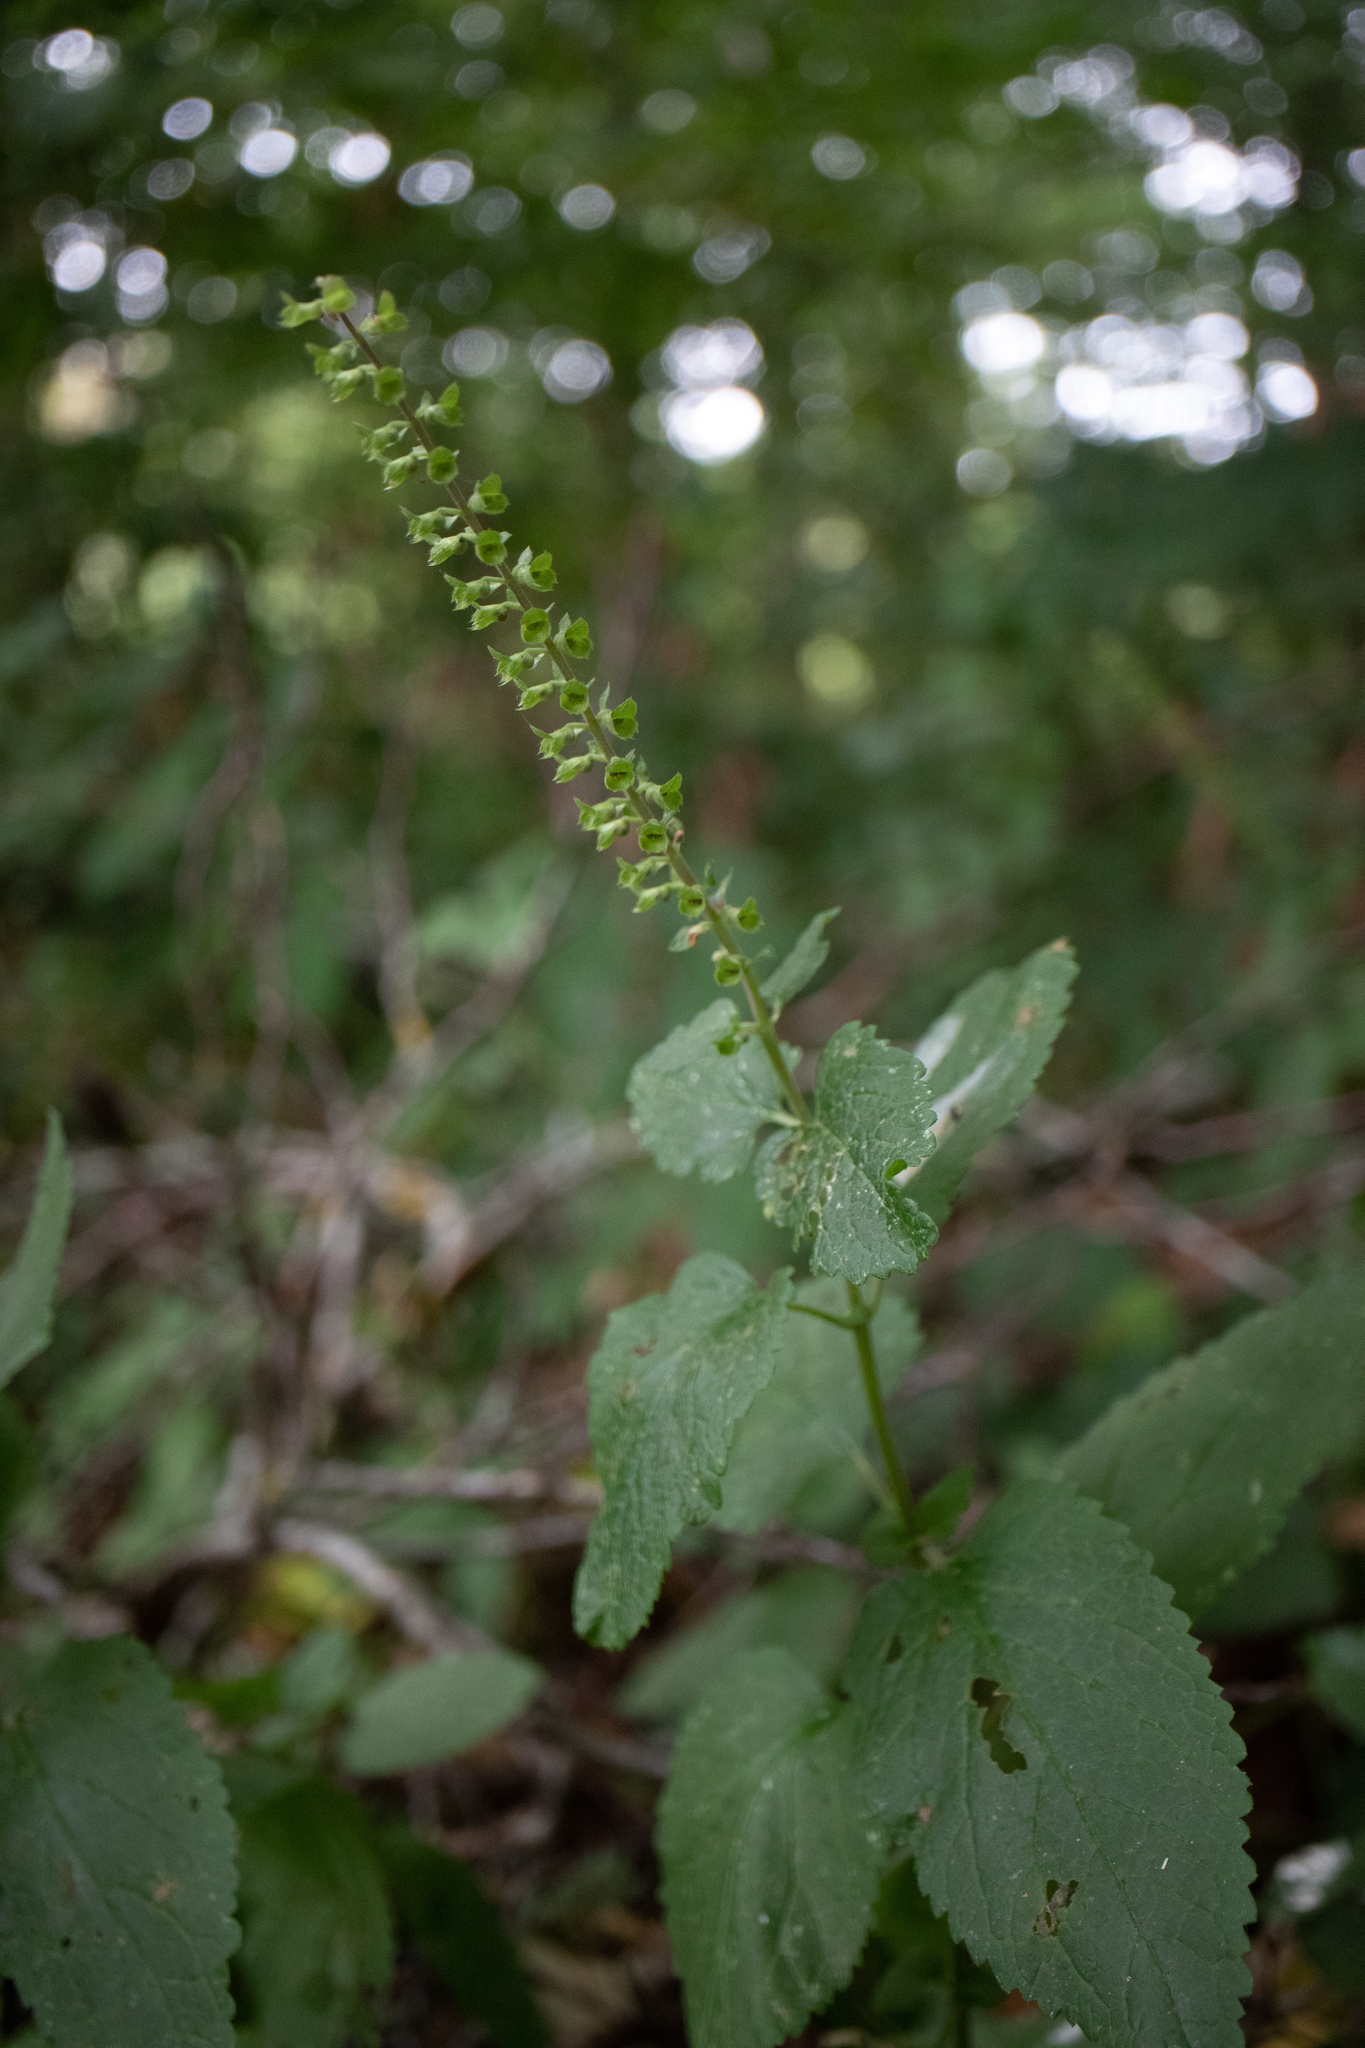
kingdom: Plantae
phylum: Tracheophyta
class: Magnoliopsida
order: Lamiales
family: Lamiaceae
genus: Stachys
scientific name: Stachys sylvatica
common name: Hedge woundwort
